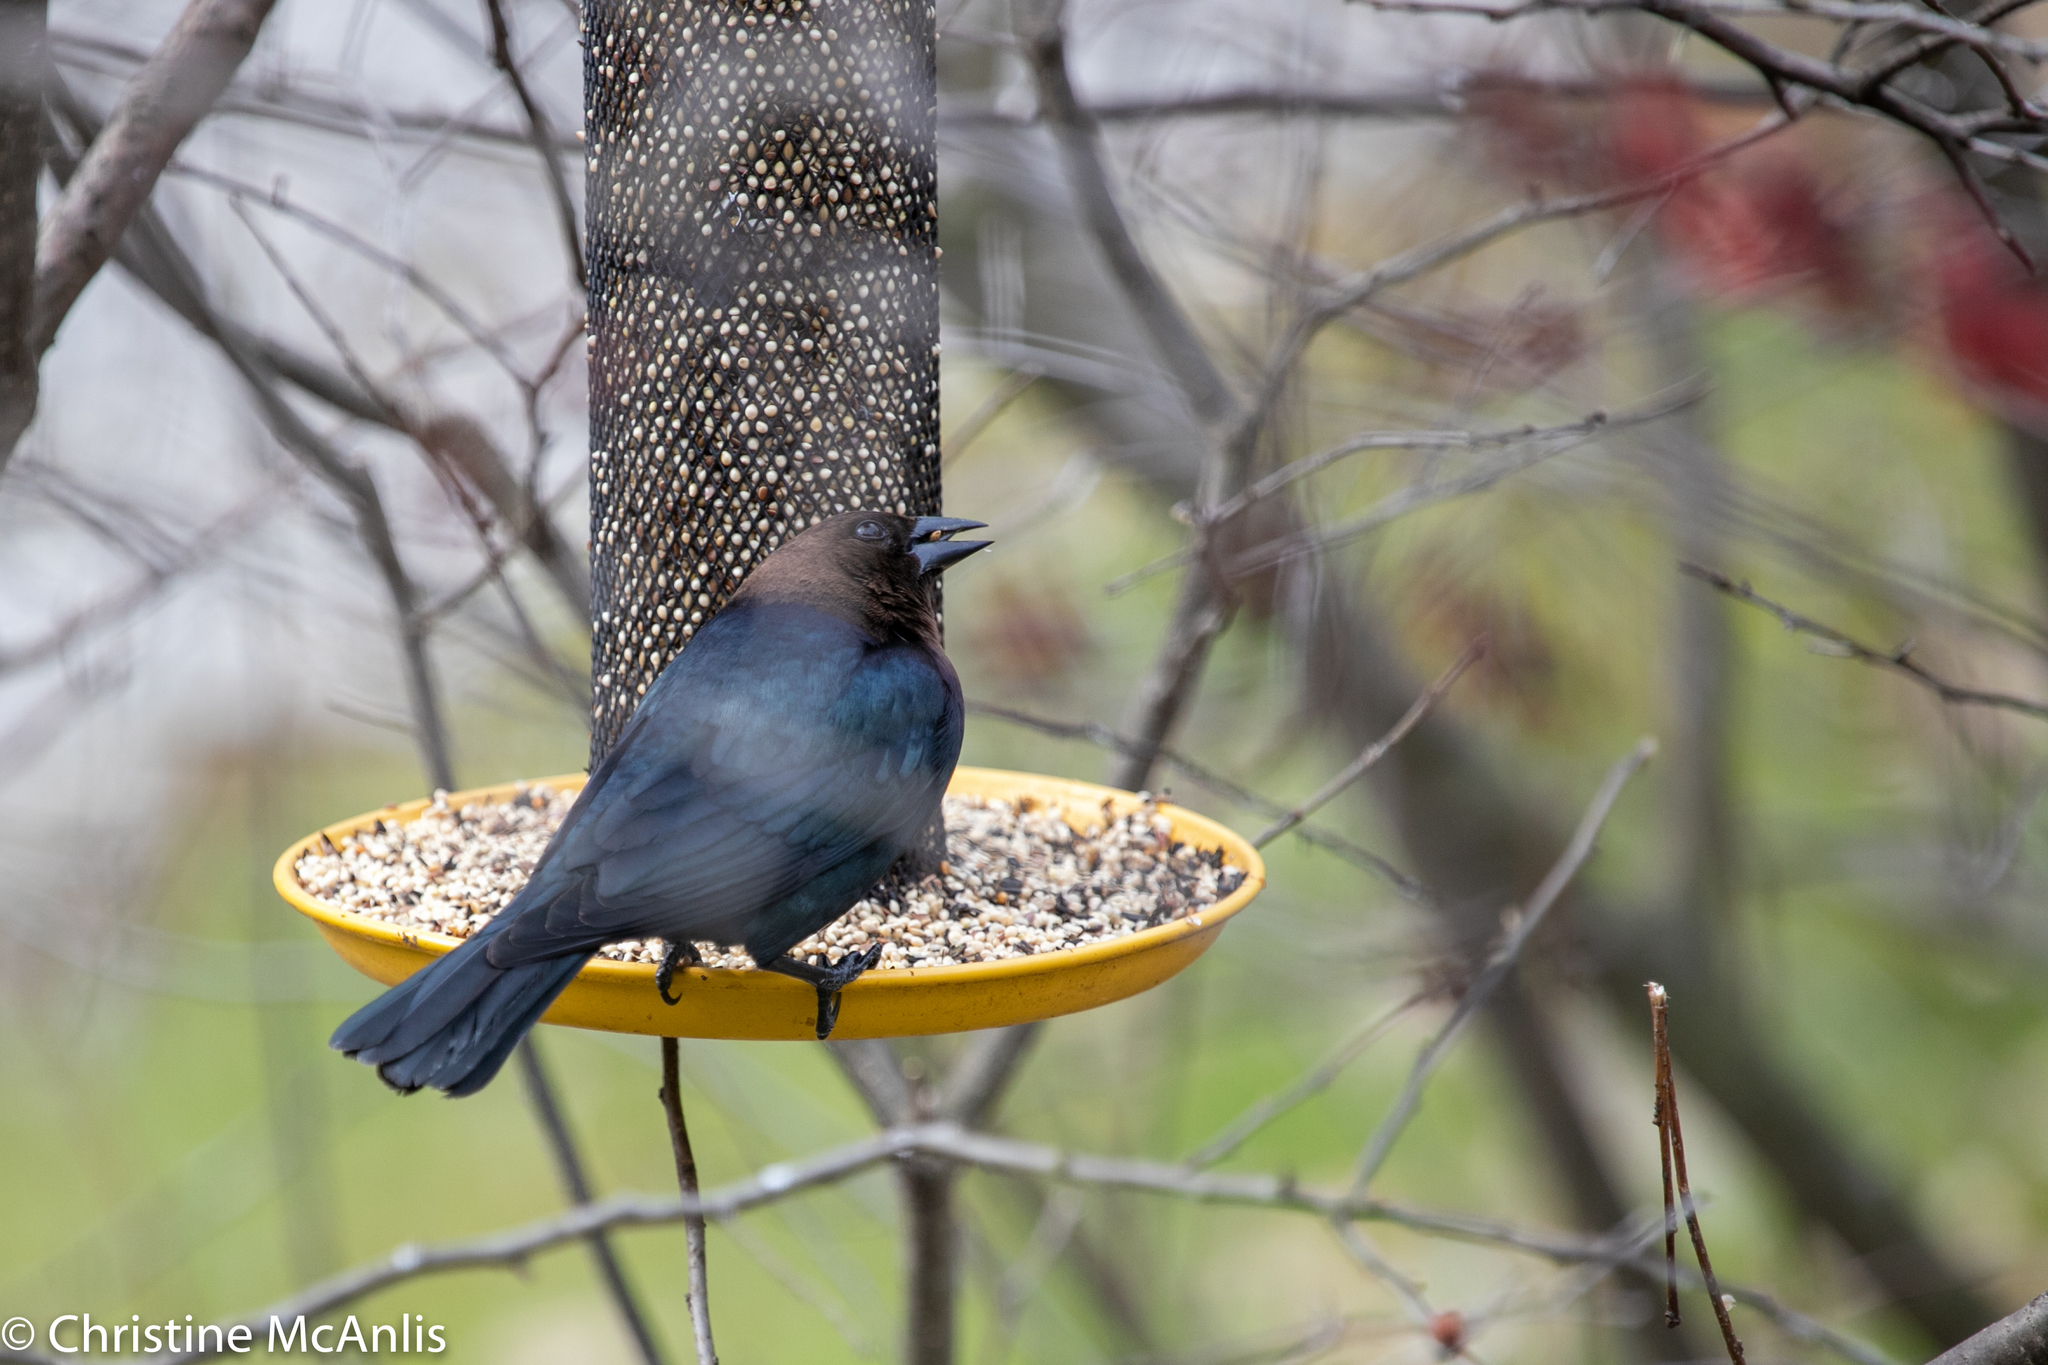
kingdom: Animalia
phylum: Chordata
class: Aves
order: Passeriformes
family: Icteridae
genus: Molothrus
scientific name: Molothrus ater
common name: Brown-headed cowbird
